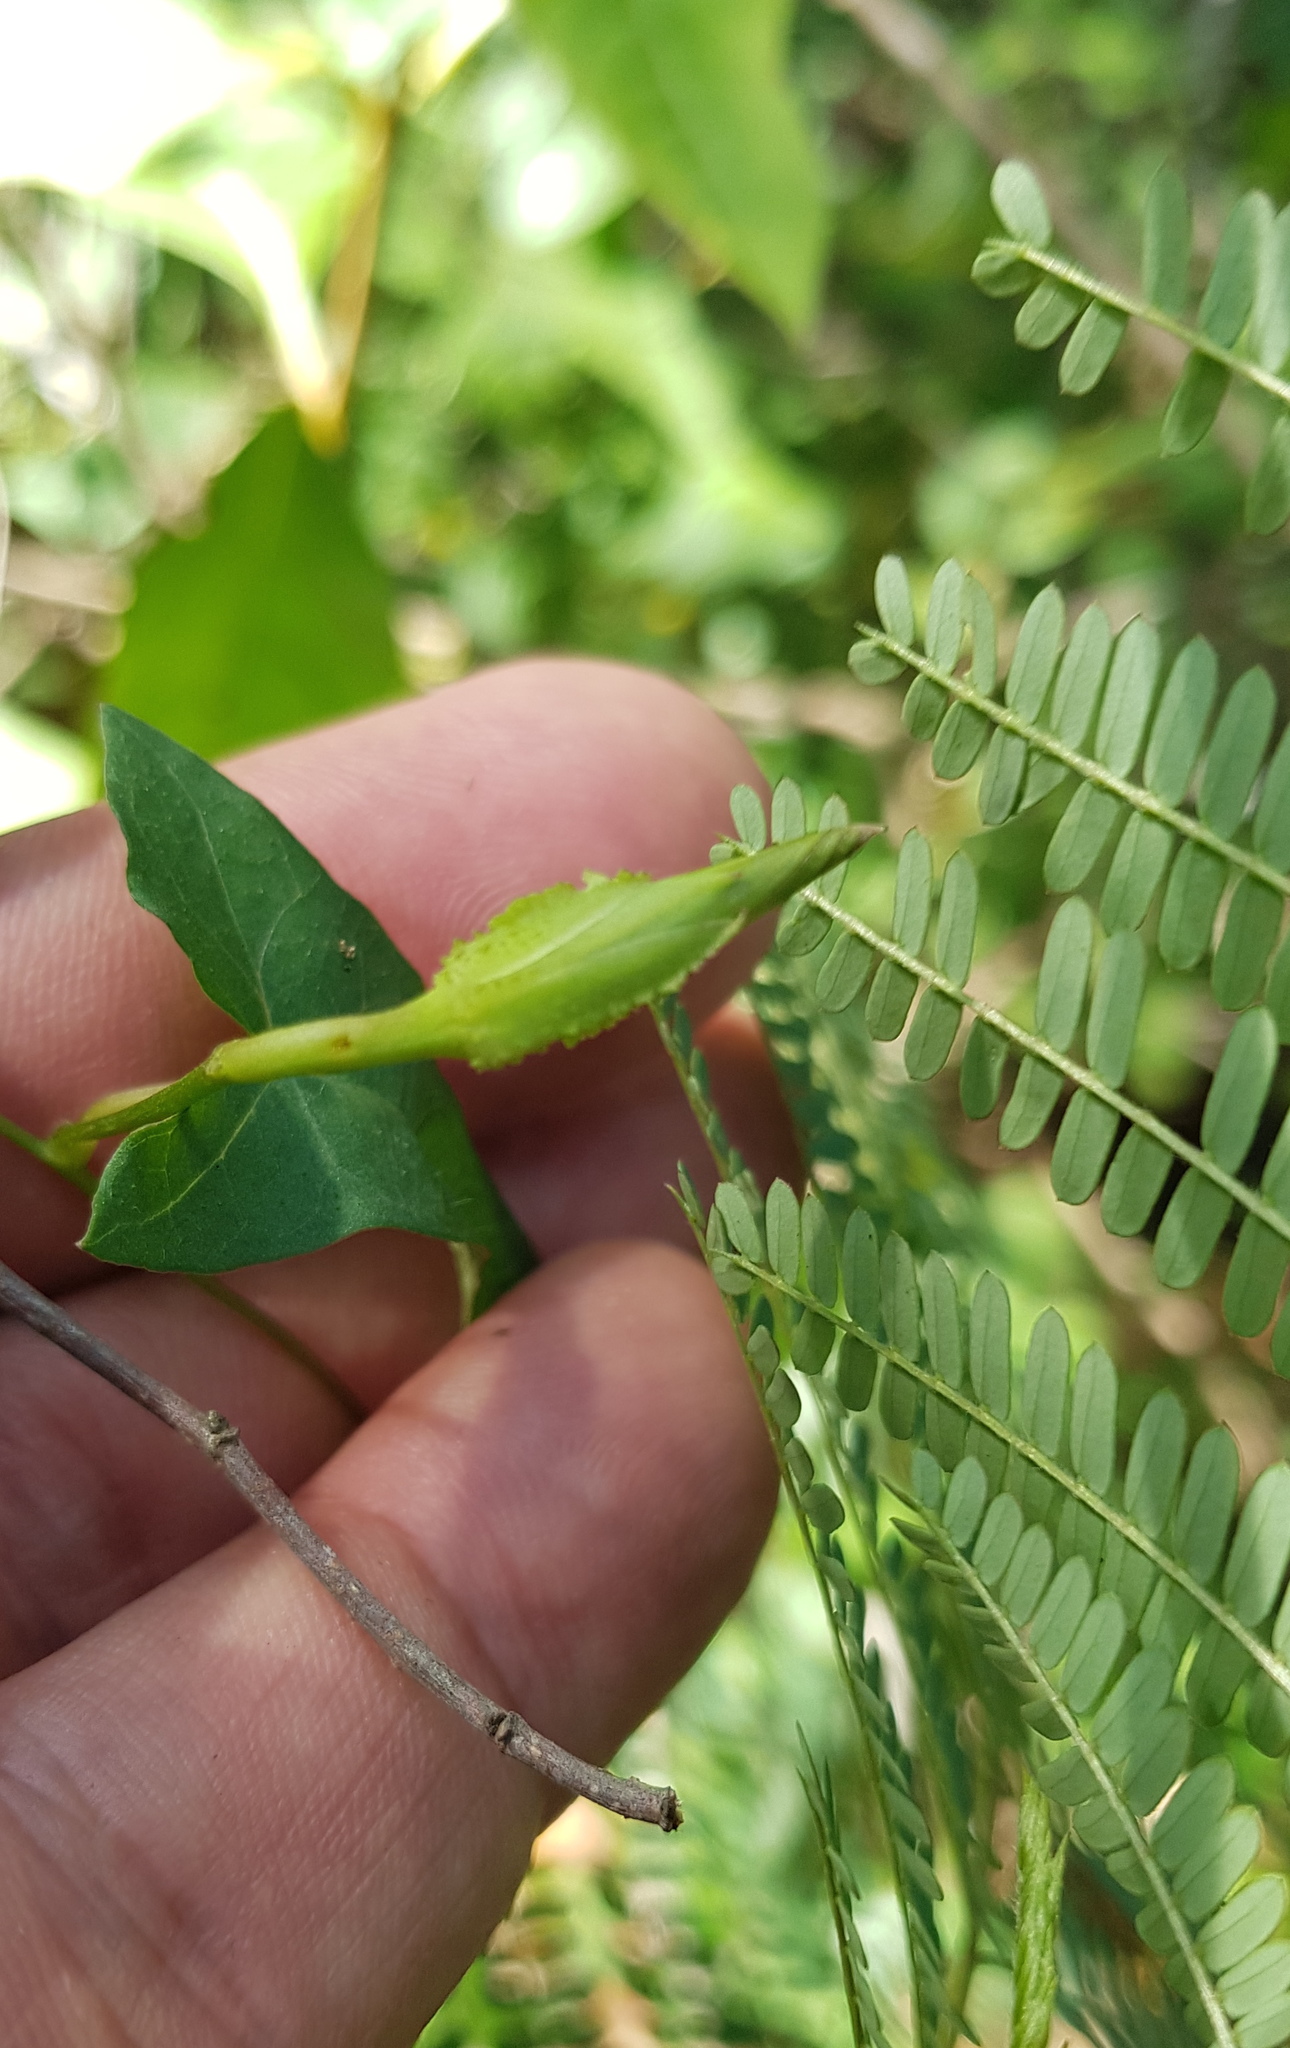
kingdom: Plantae
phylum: Tracheophyta
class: Magnoliopsida
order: Solanales
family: Convolvulaceae
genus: Ipomoea
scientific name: Ipomoea elongata
